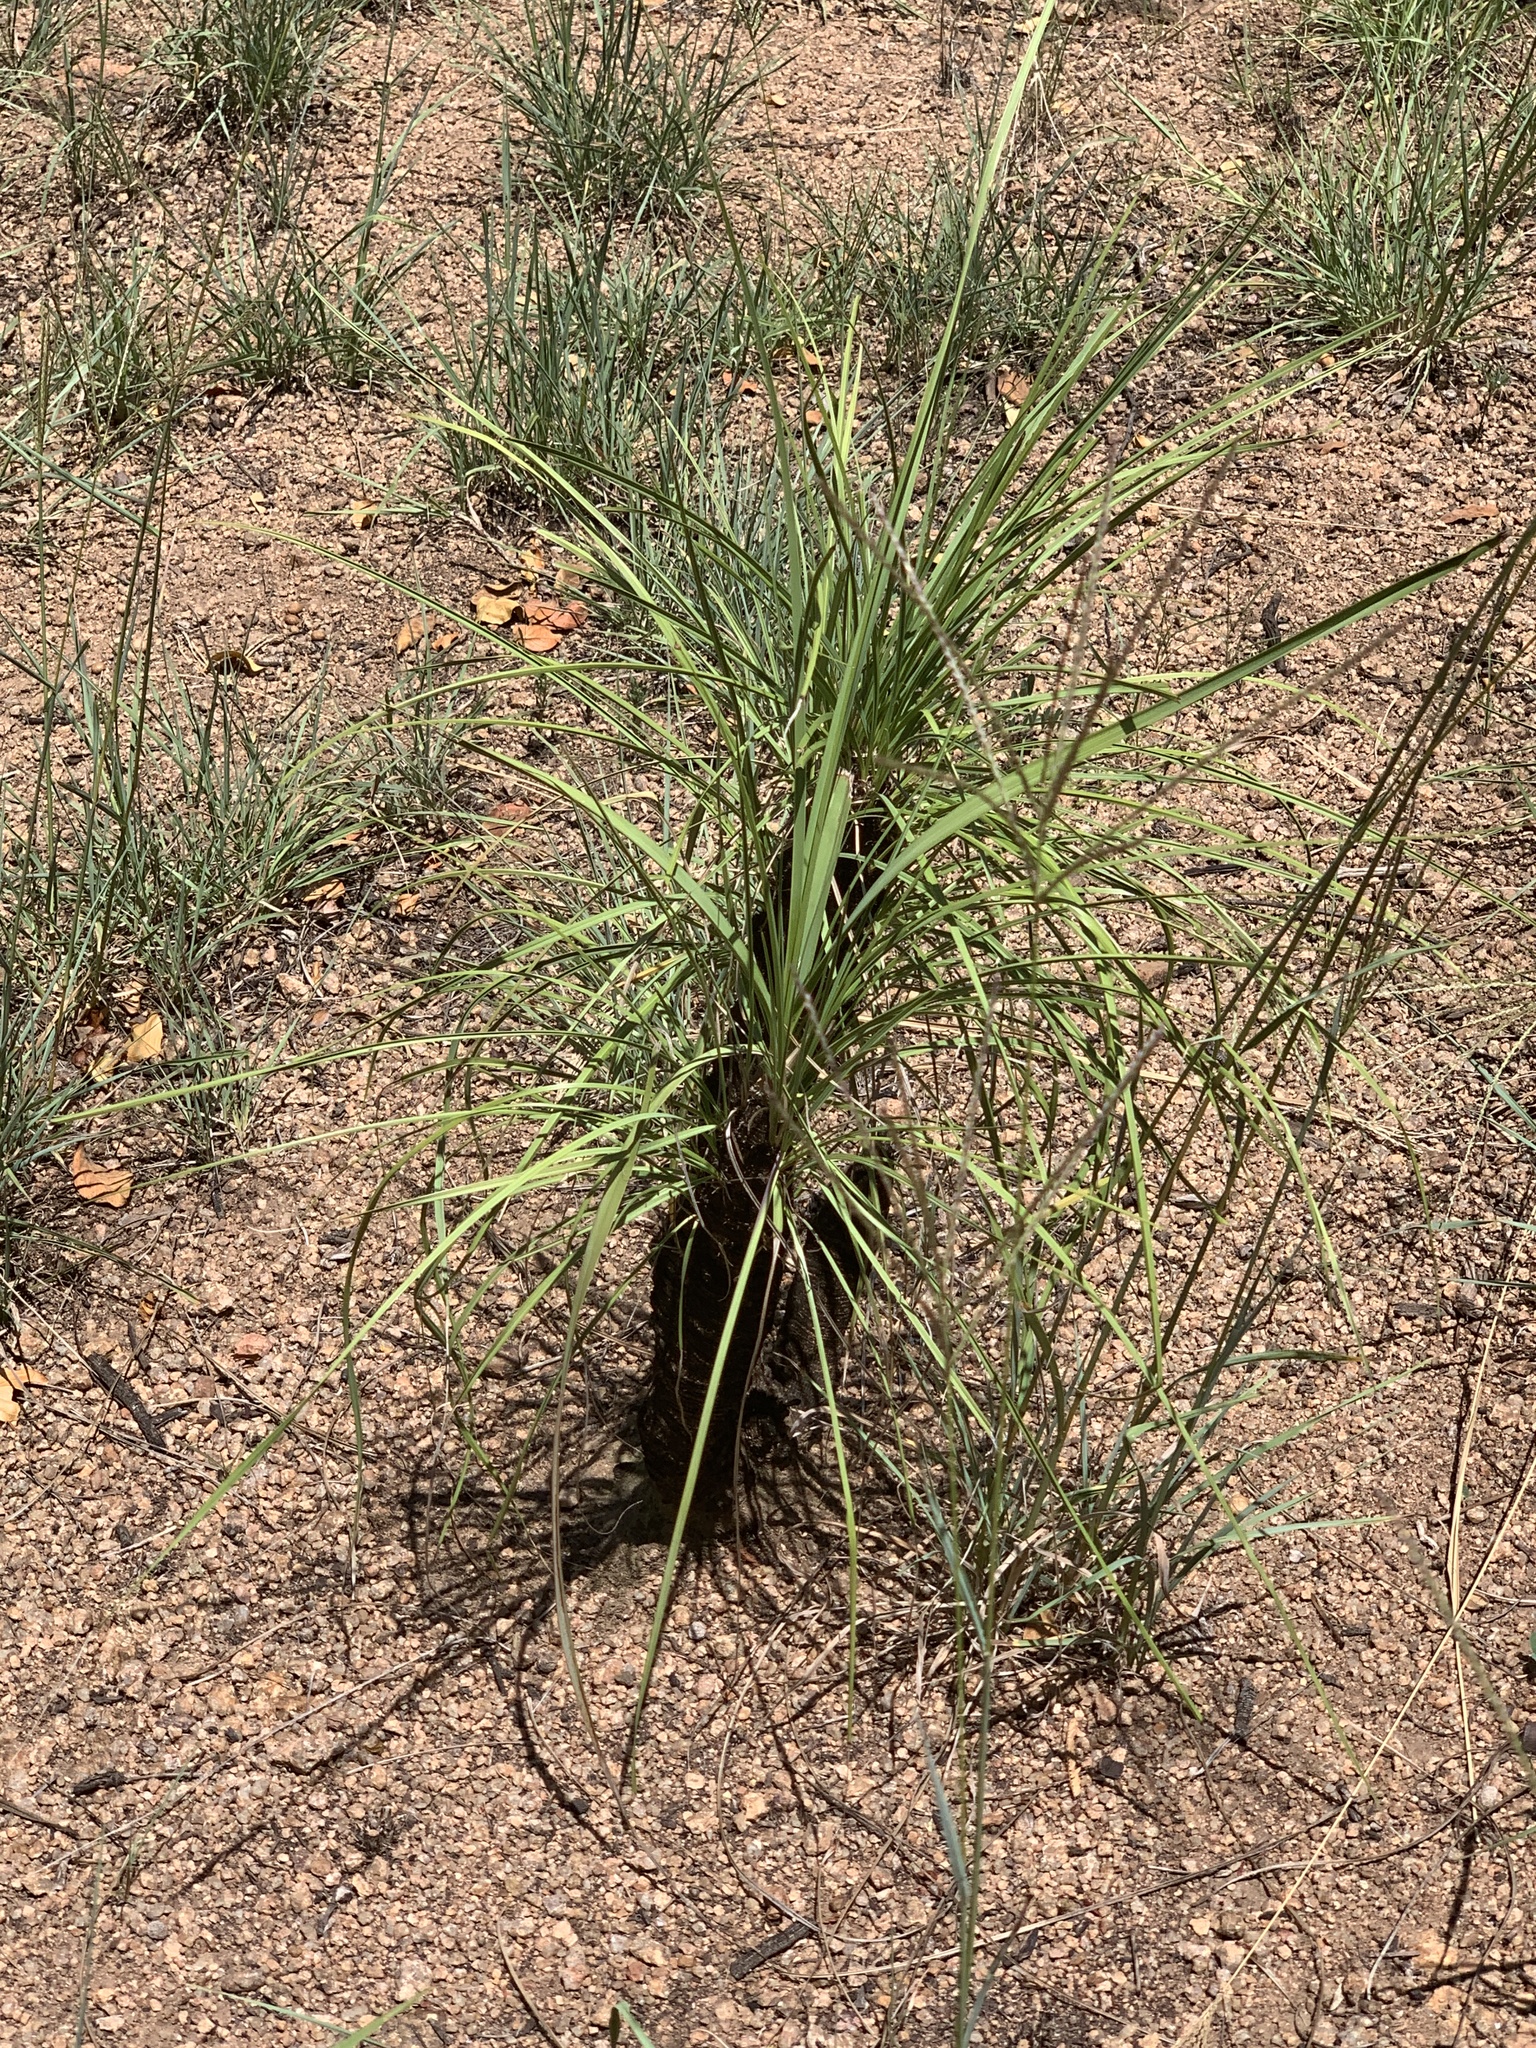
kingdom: Plantae
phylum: Tracheophyta
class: Liliopsida
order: Pandanales
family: Velloziaceae
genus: Xerophyta
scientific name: Xerophyta retinervis
